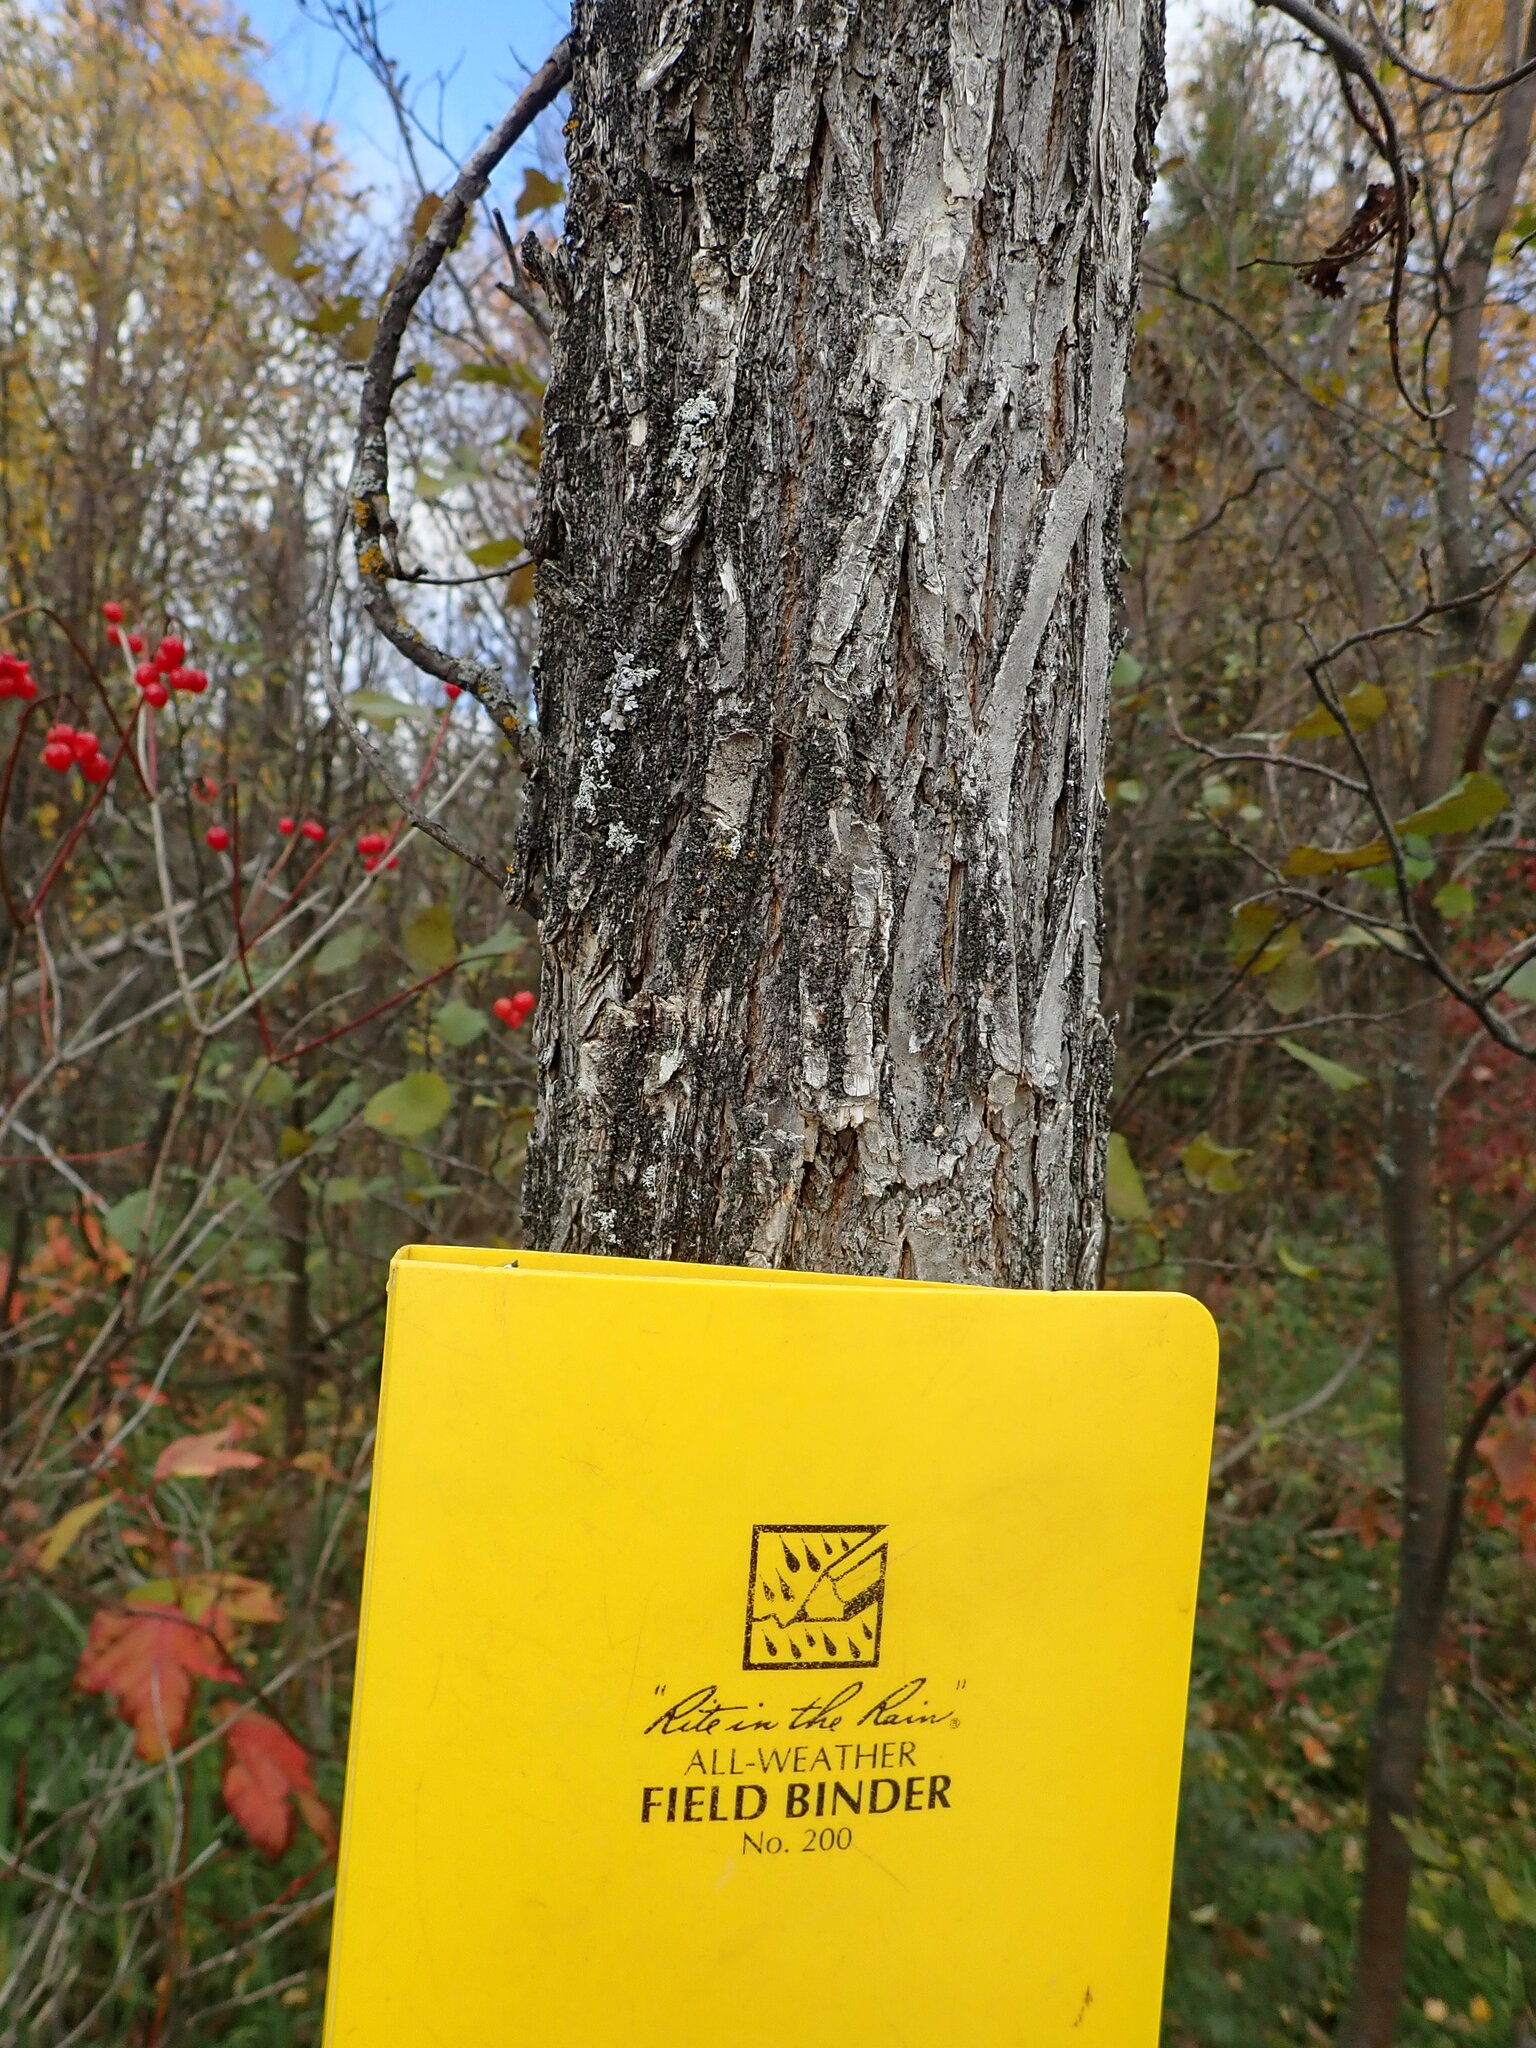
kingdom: Plantae
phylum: Tracheophyta
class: Magnoliopsida
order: Rosales
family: Ulmaceae
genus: Ulmus
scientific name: Ulmus americana
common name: American elm
